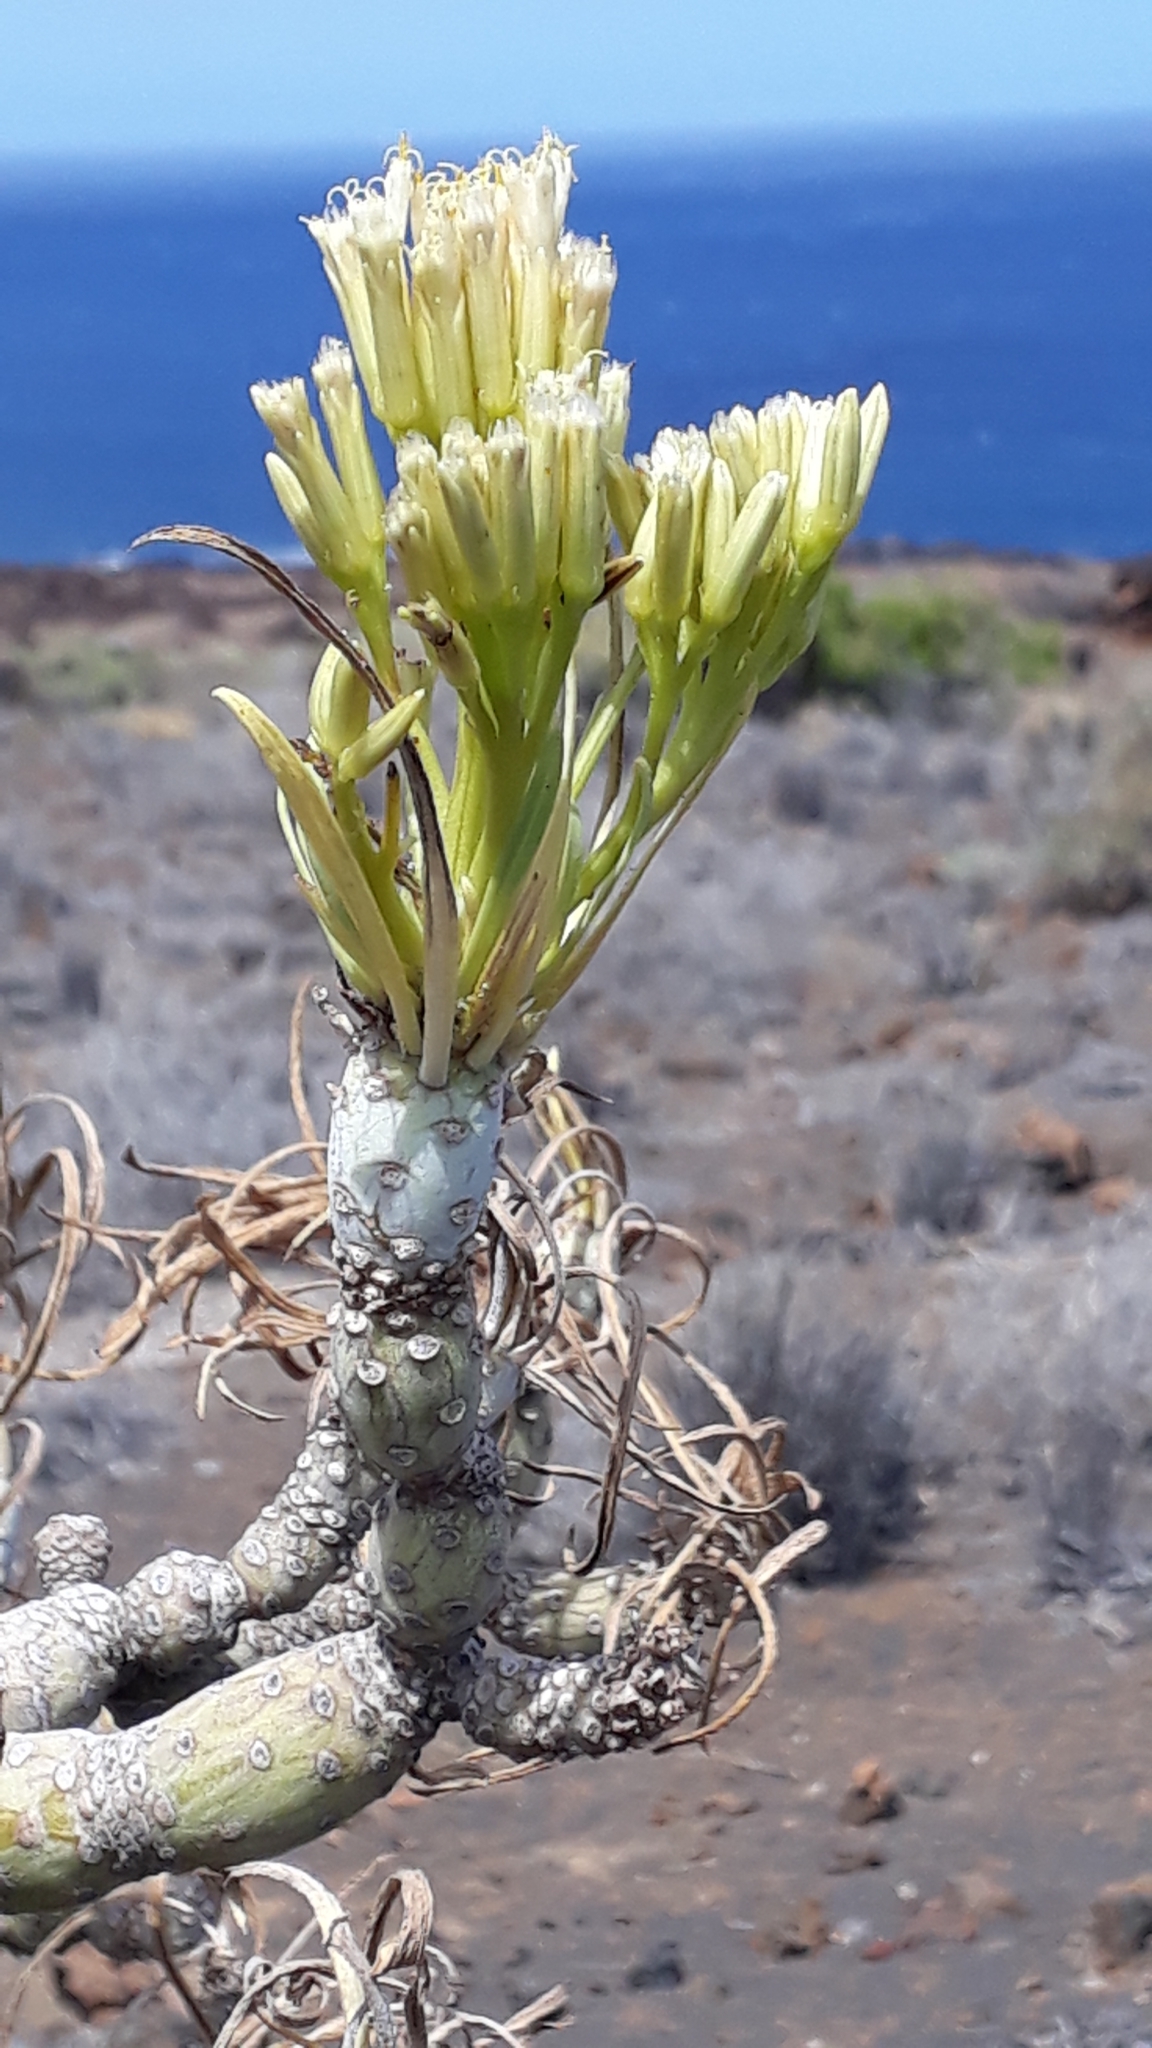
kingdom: Plantae
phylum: Tracheophyta
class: Magnoliopsida
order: Asterales
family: Asteraceae
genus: Kleinia
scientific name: Kleinia neriifolia
